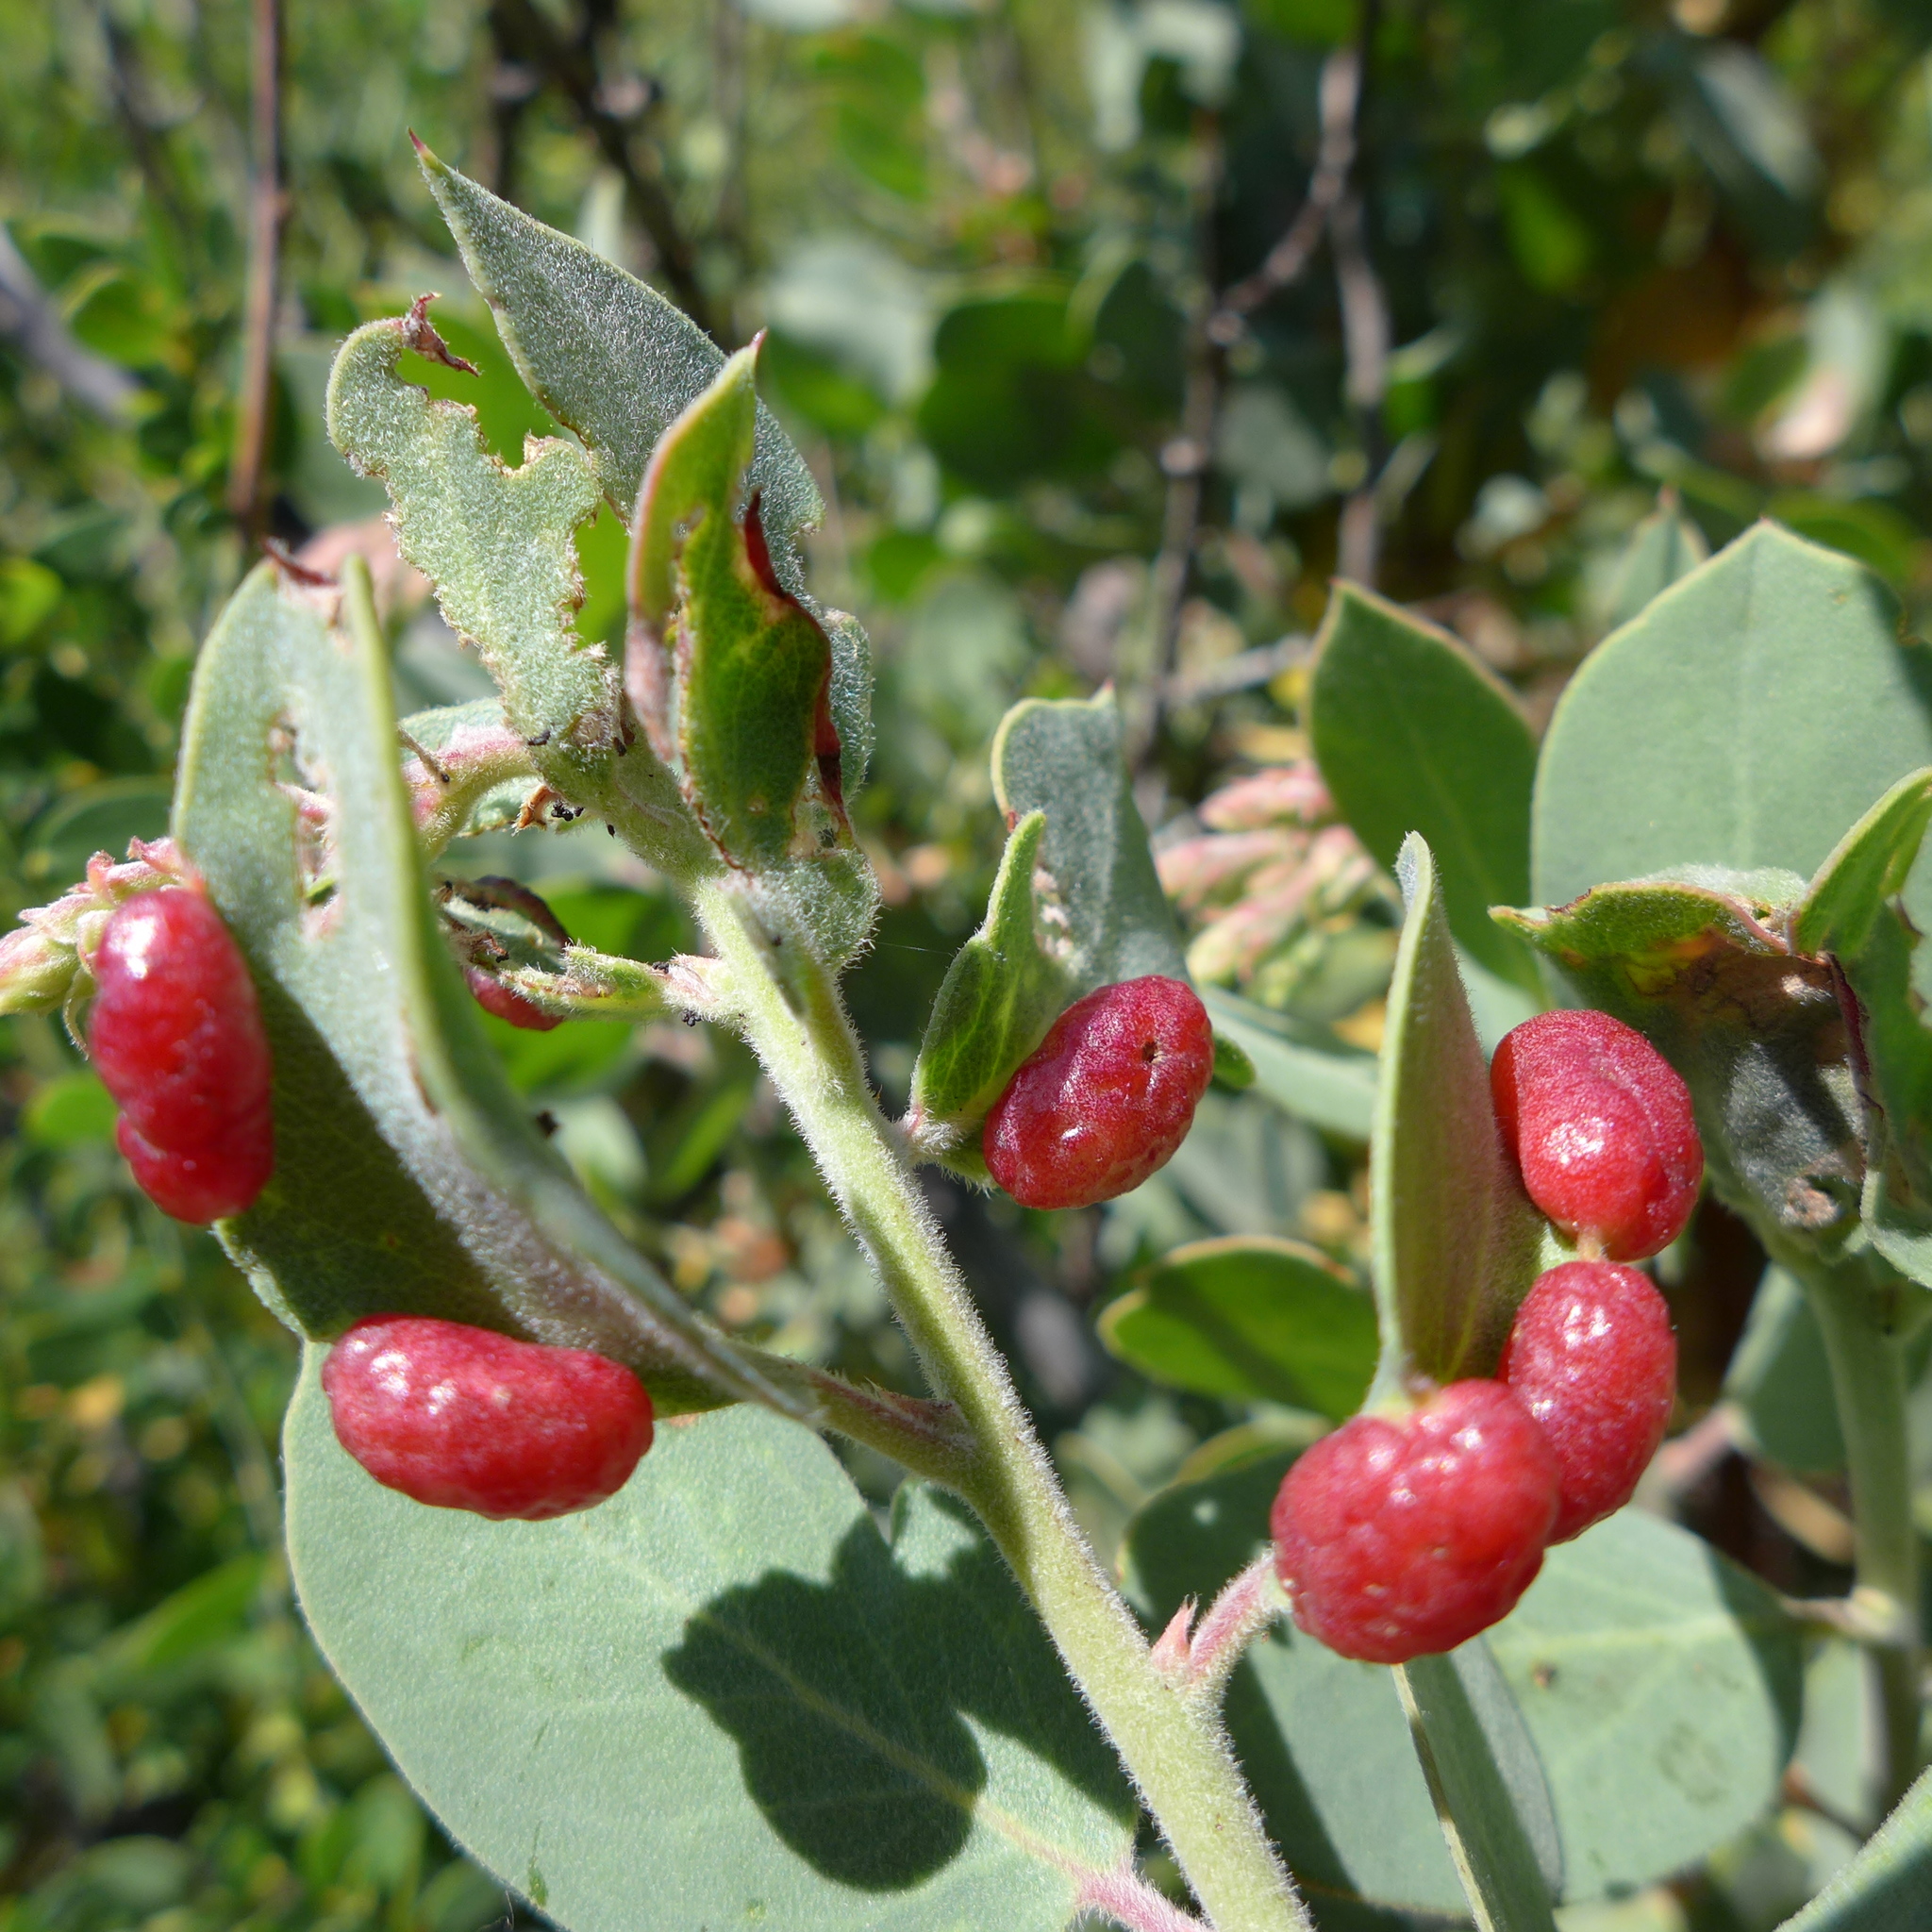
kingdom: Animalia
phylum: Arthropoda
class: Insecta
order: Hemiptera
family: Aphididae
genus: Tamalia
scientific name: Tamalia
